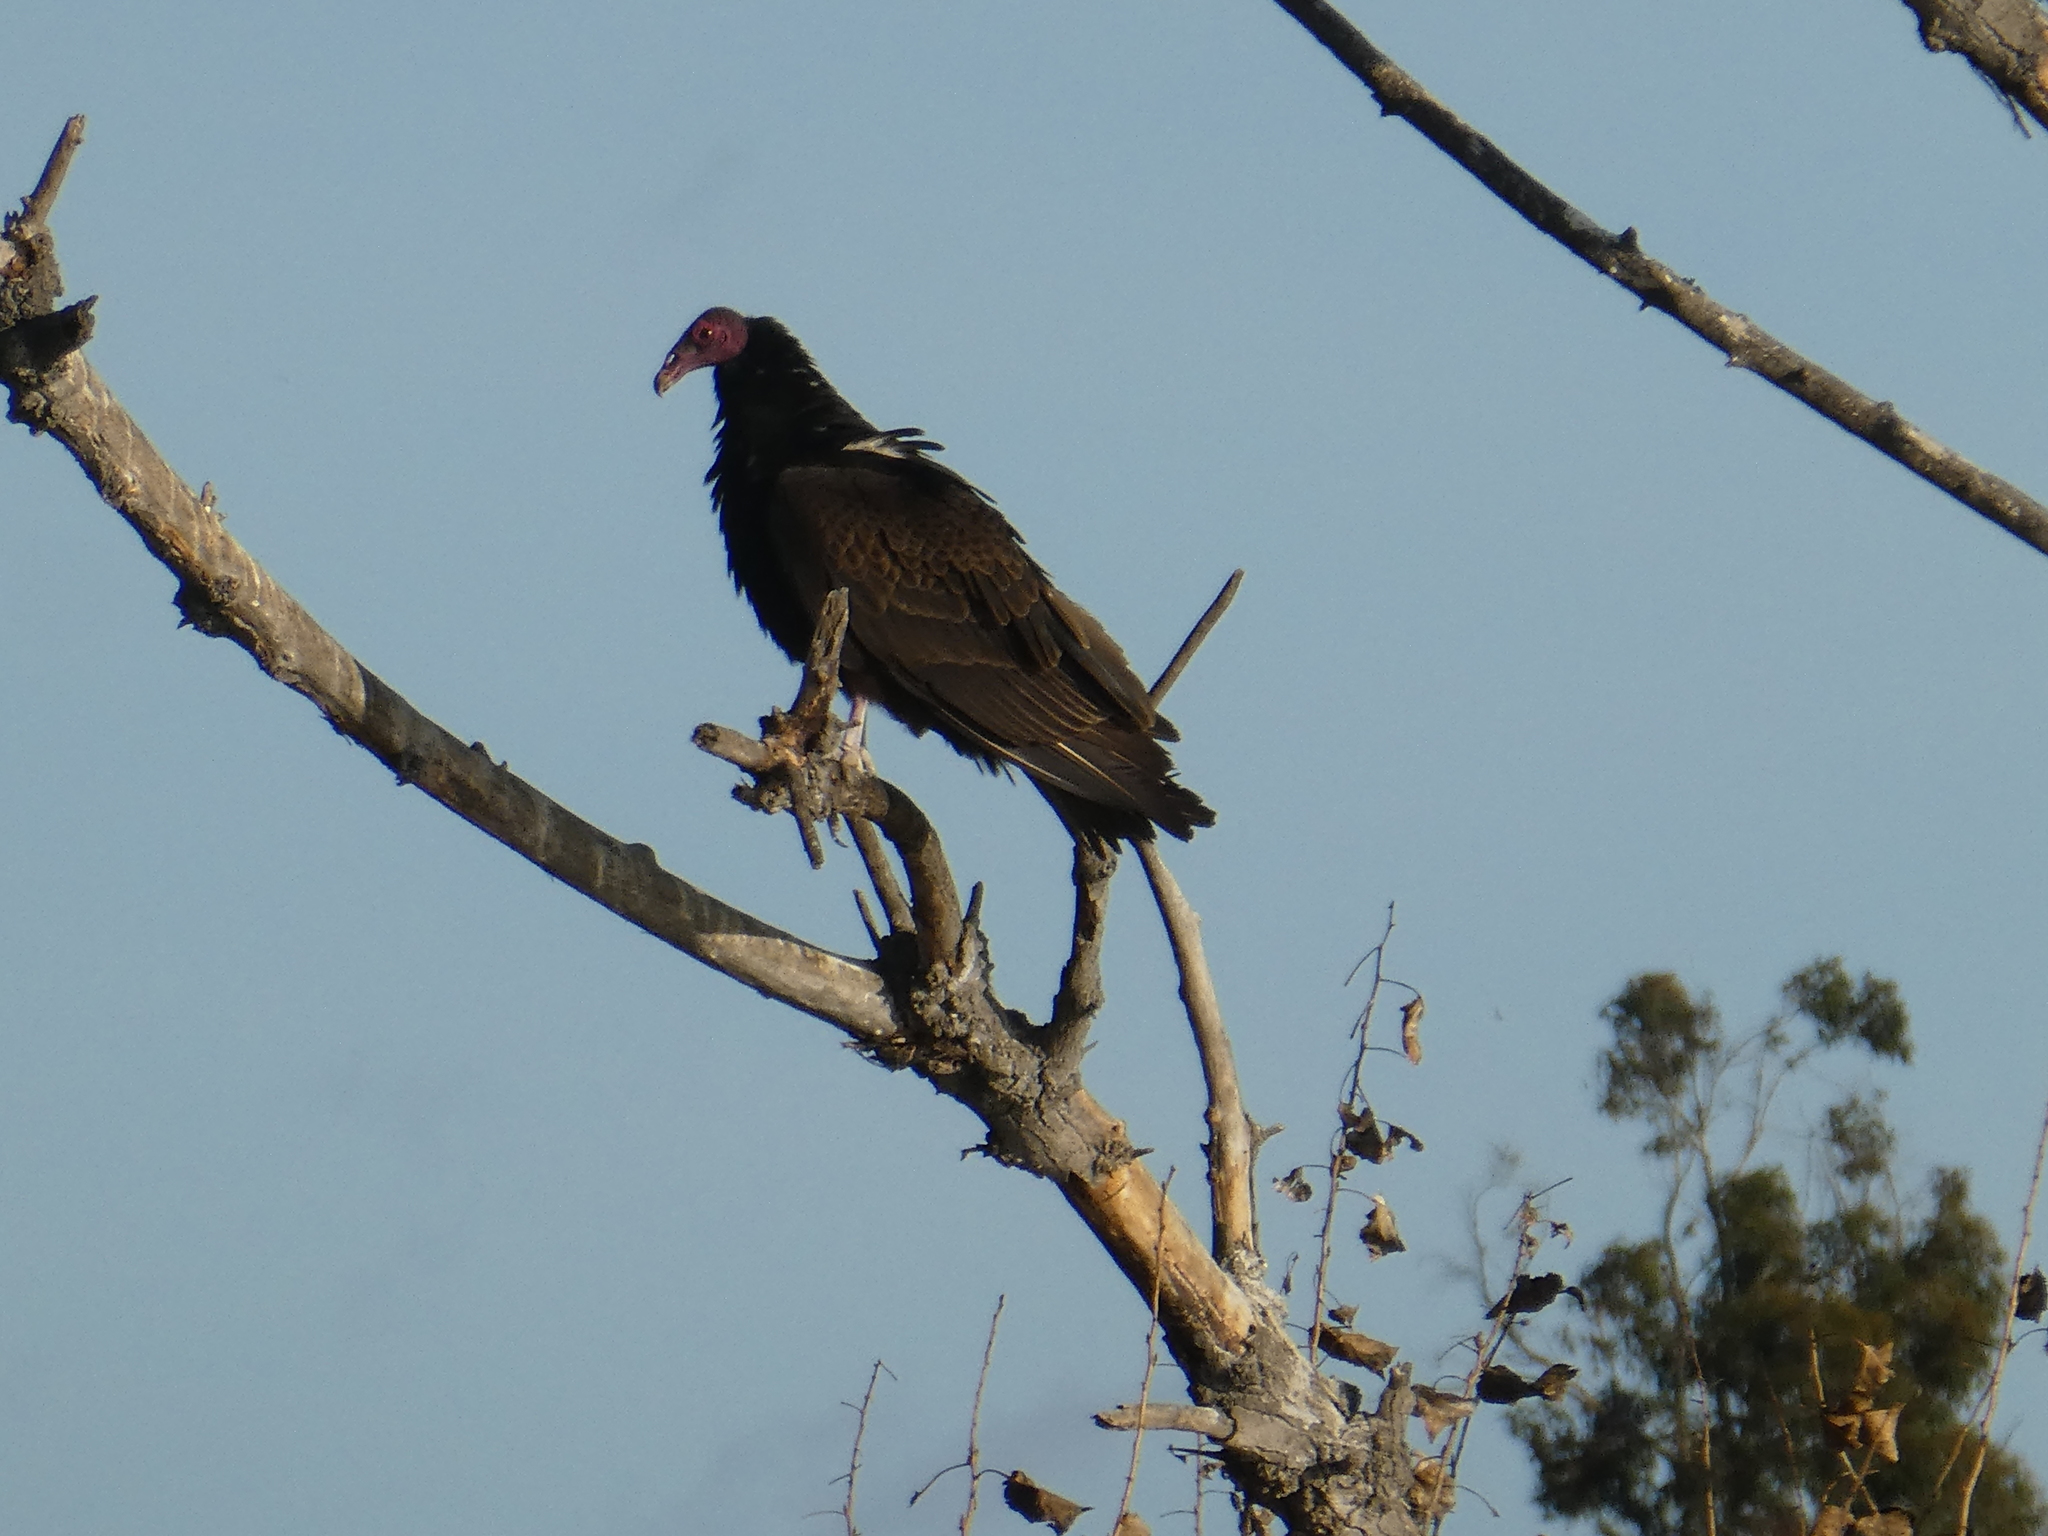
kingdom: Animalia
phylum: Chordata
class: Aves
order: Accipitriformes
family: Cathartidae
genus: Cathartes
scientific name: Cathartes aura
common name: Turkey vulture
